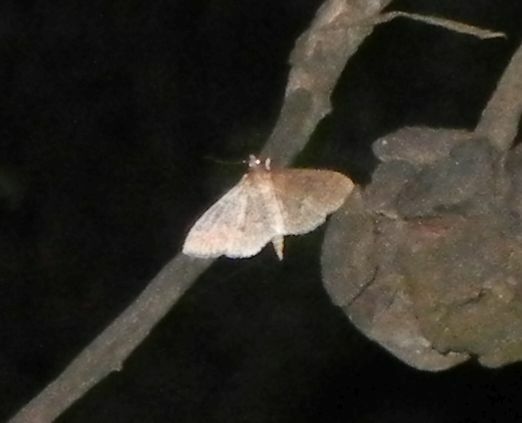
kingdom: Animalia
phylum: Arthropoda
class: Insecta
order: Lepidoptera
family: Crambidae
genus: Herpetogramma
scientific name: Herpetogramma licarsisalis
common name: Grass webworm
